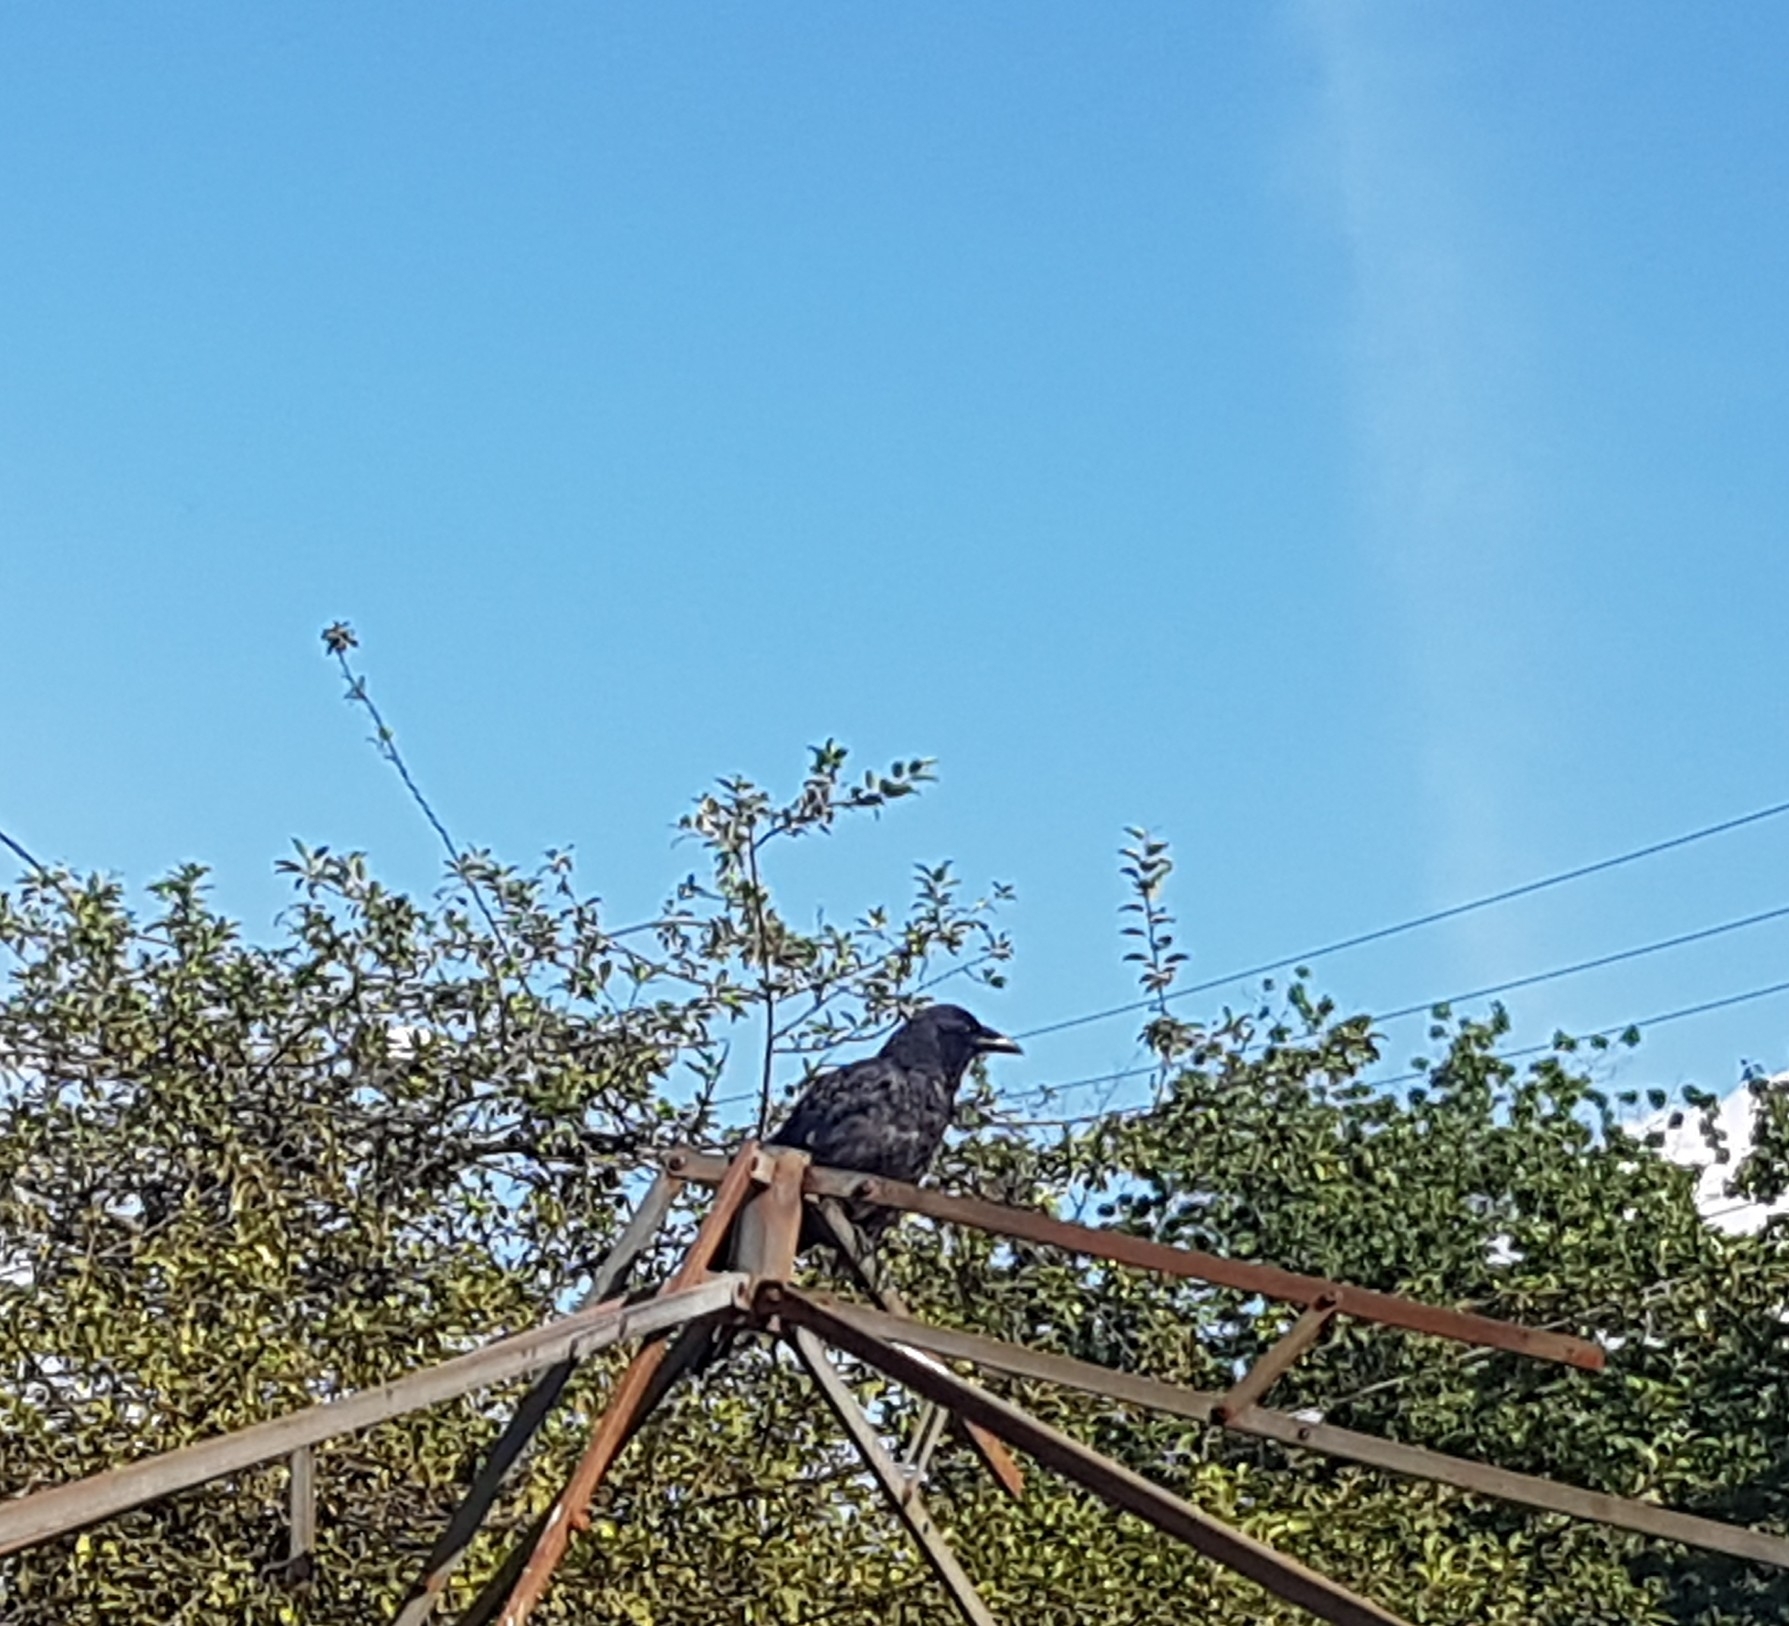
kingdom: Animalia
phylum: Chordata
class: Aves
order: Passeriformes
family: Corvidae
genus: Corvus
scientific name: Corvus brachyrhynchos
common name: American crow
